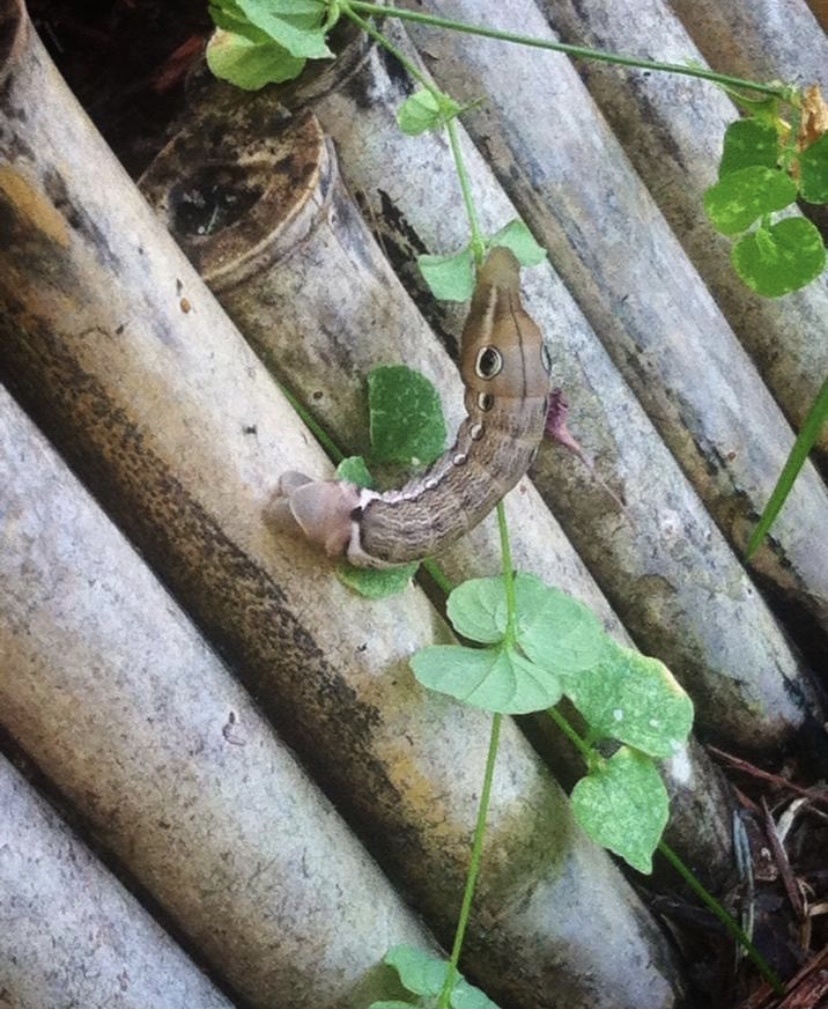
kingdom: Animalia
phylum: Arthropoda
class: Insecta
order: Lepidoptera
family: Sphingidae
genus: Xylophanes
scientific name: Xylophanes tersa
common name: Tersa sphinx
